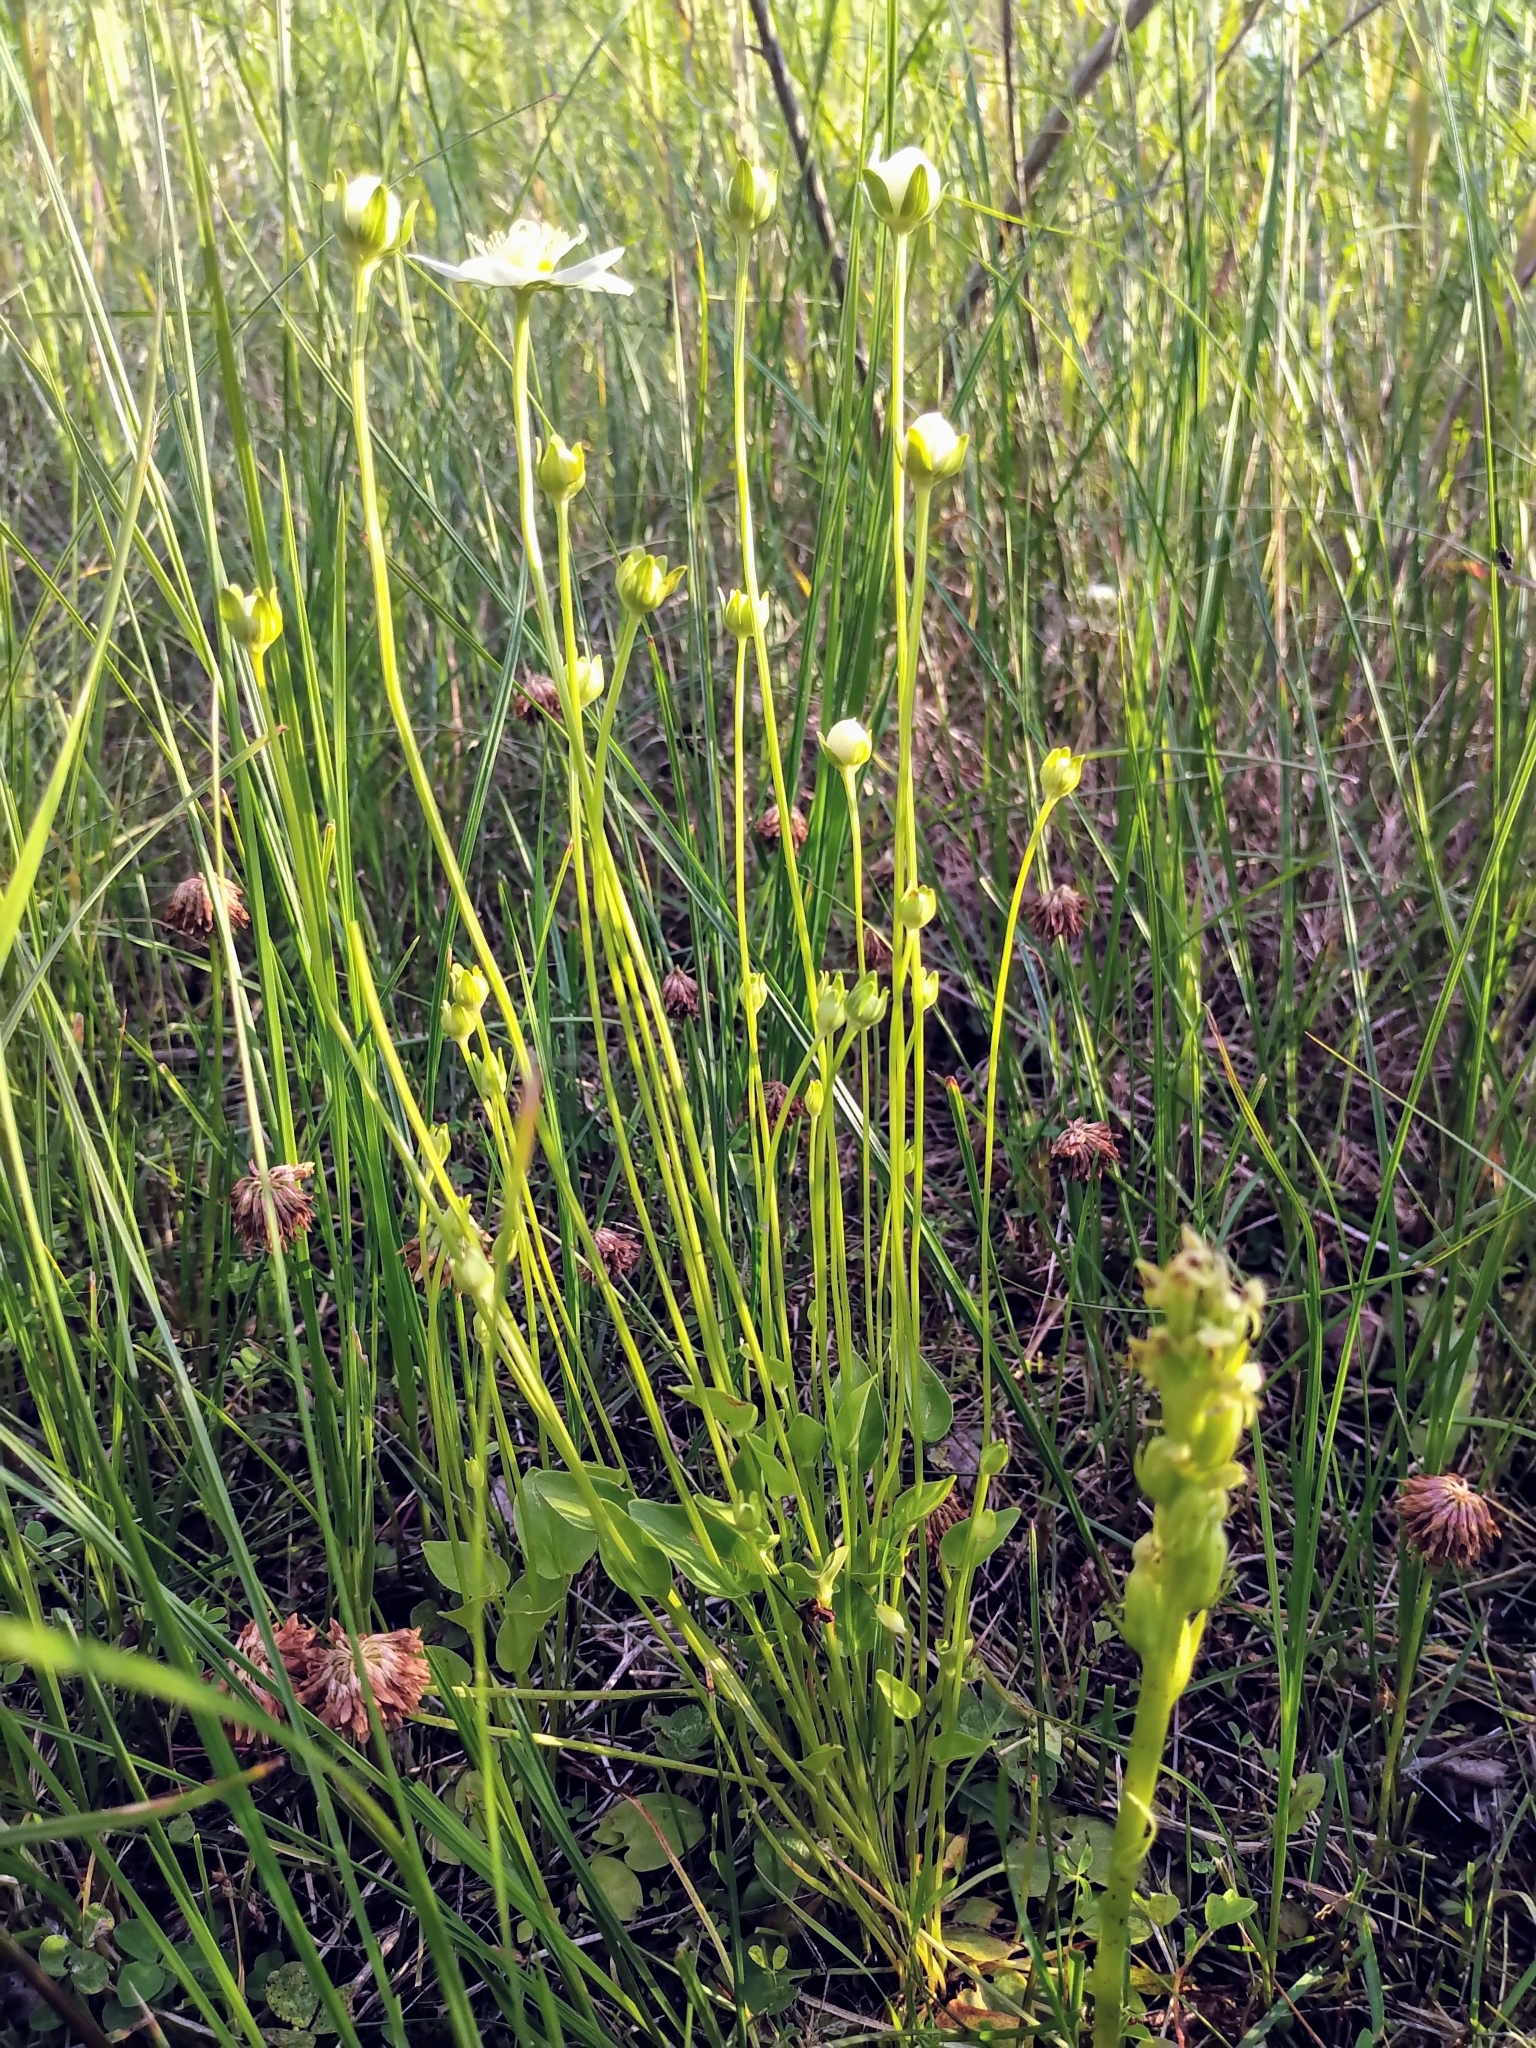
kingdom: Plantae
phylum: Tracheophyta
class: Magnoliopsida
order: Celastrales
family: Parnassiaceae
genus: Parnassia
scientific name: Parnassia palustris
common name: Grass-of-parnassus
